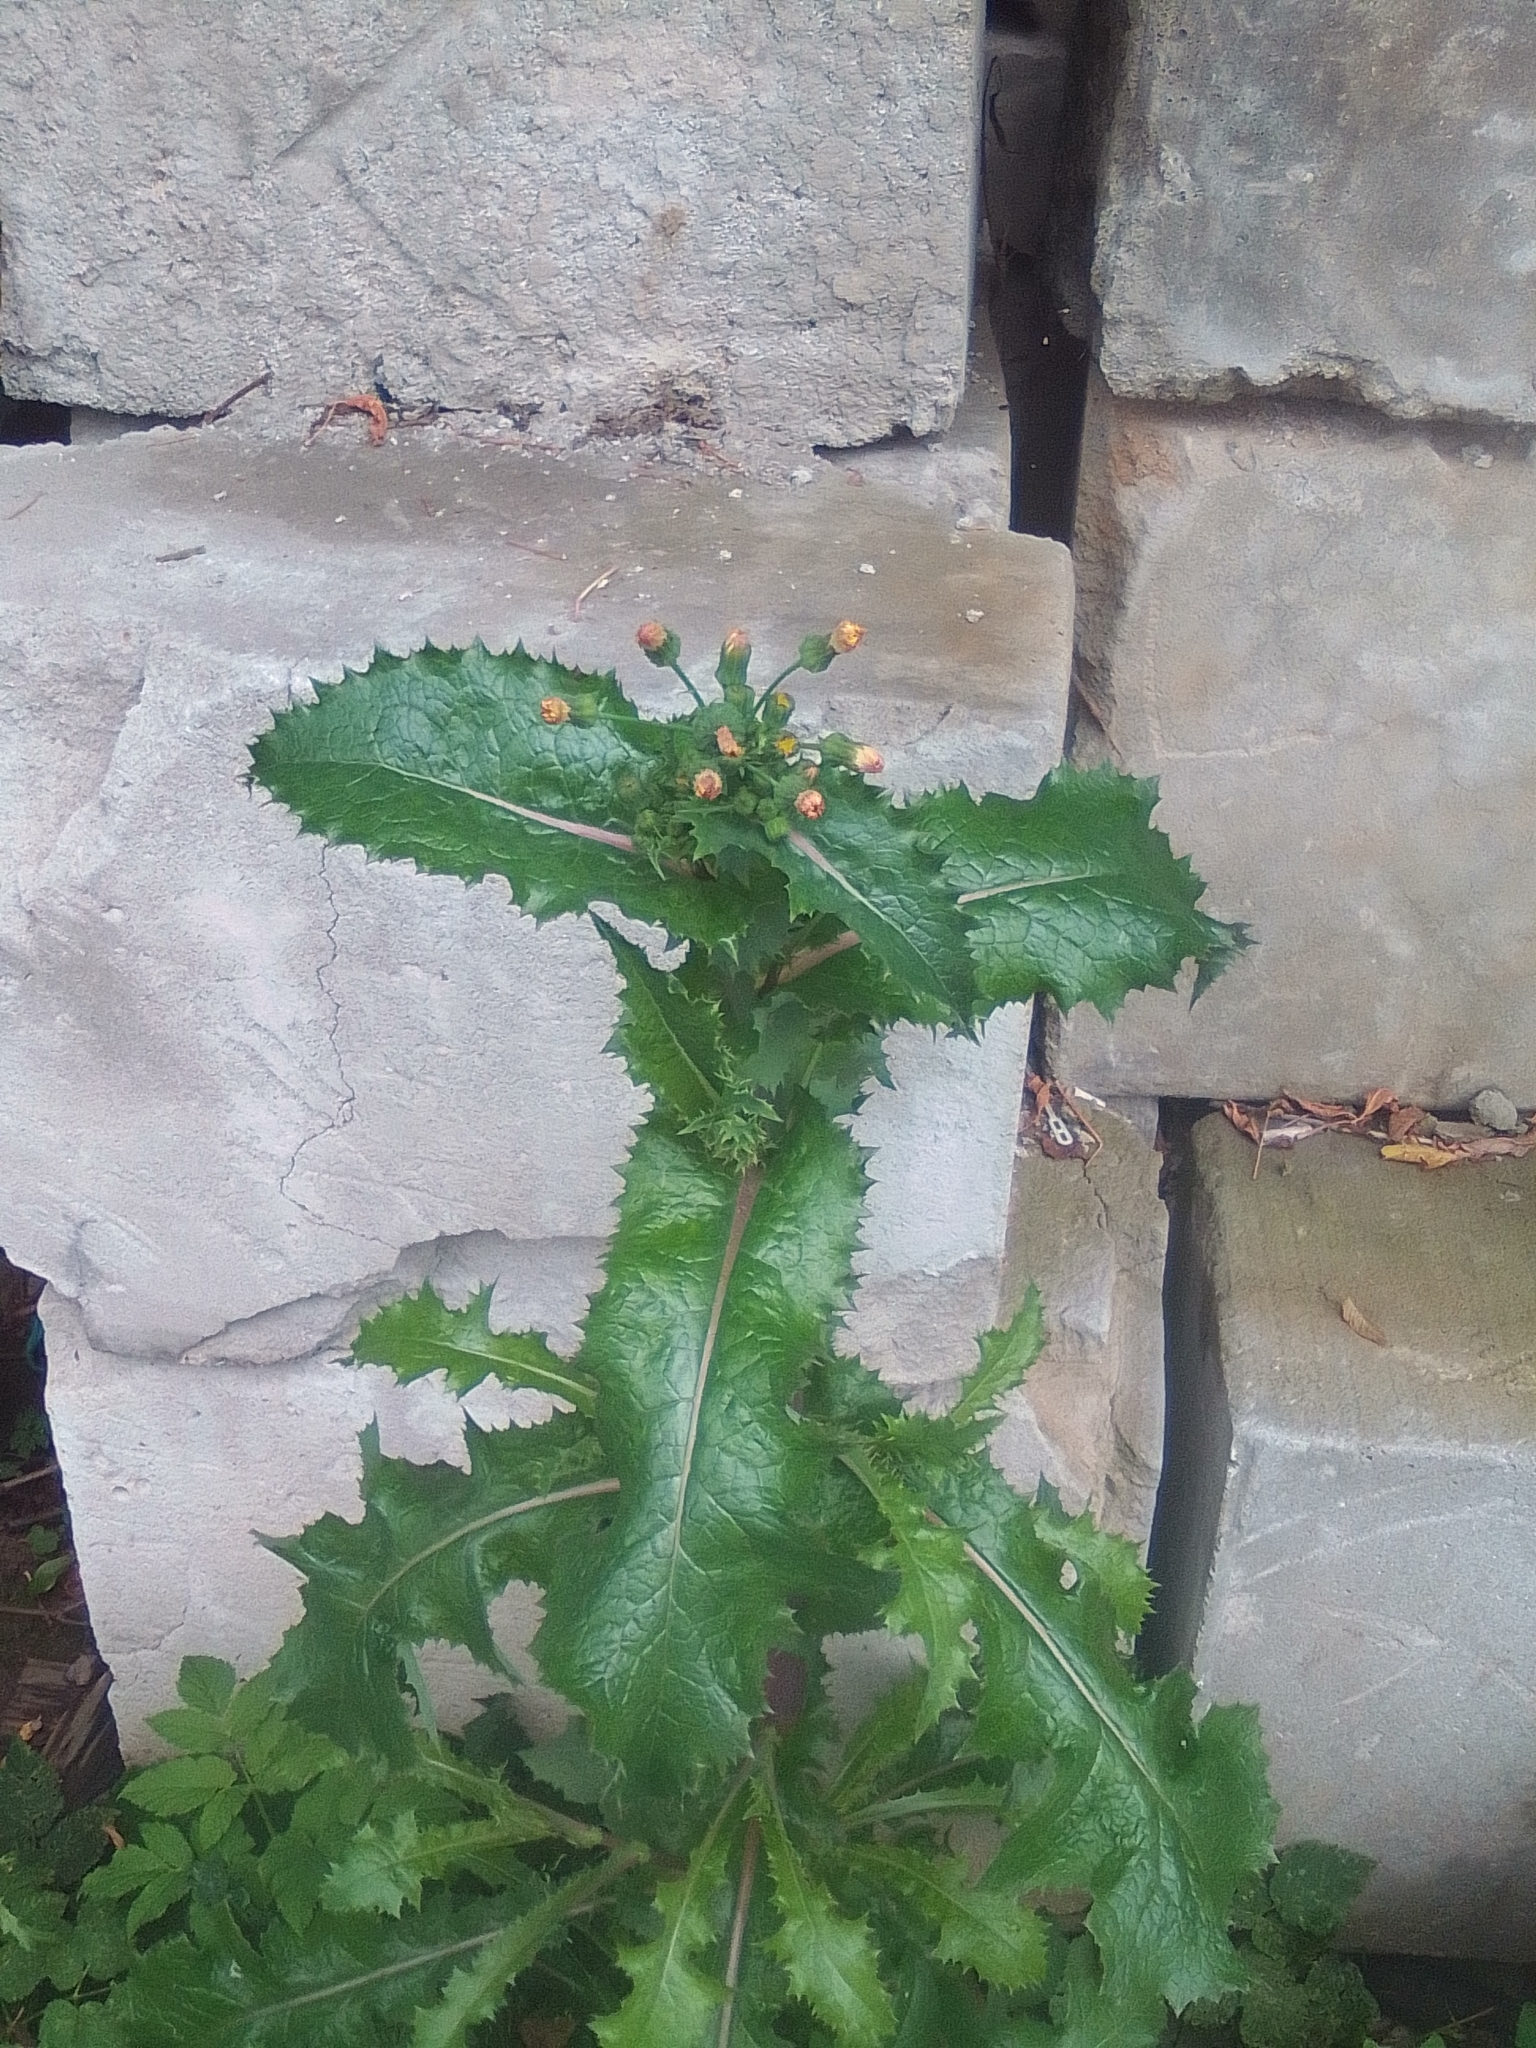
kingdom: Plantae
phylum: Tracheophyta
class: Magnoliopsida
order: Asterales
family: Asteraceae
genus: Sonchus
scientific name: Sonchus asper
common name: Prickly sow-thistle
